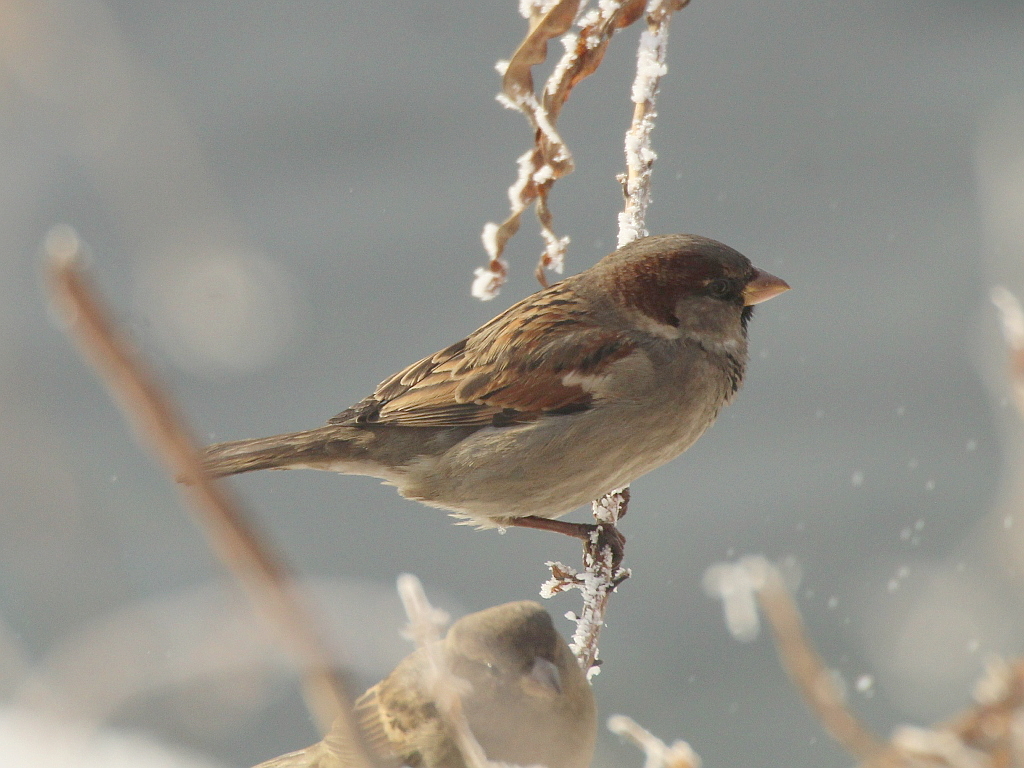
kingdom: Animalia
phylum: Chordata
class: Aves
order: Passeriformes
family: Passeridae
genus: Passer
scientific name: Passer domesticus
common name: House sparrow
